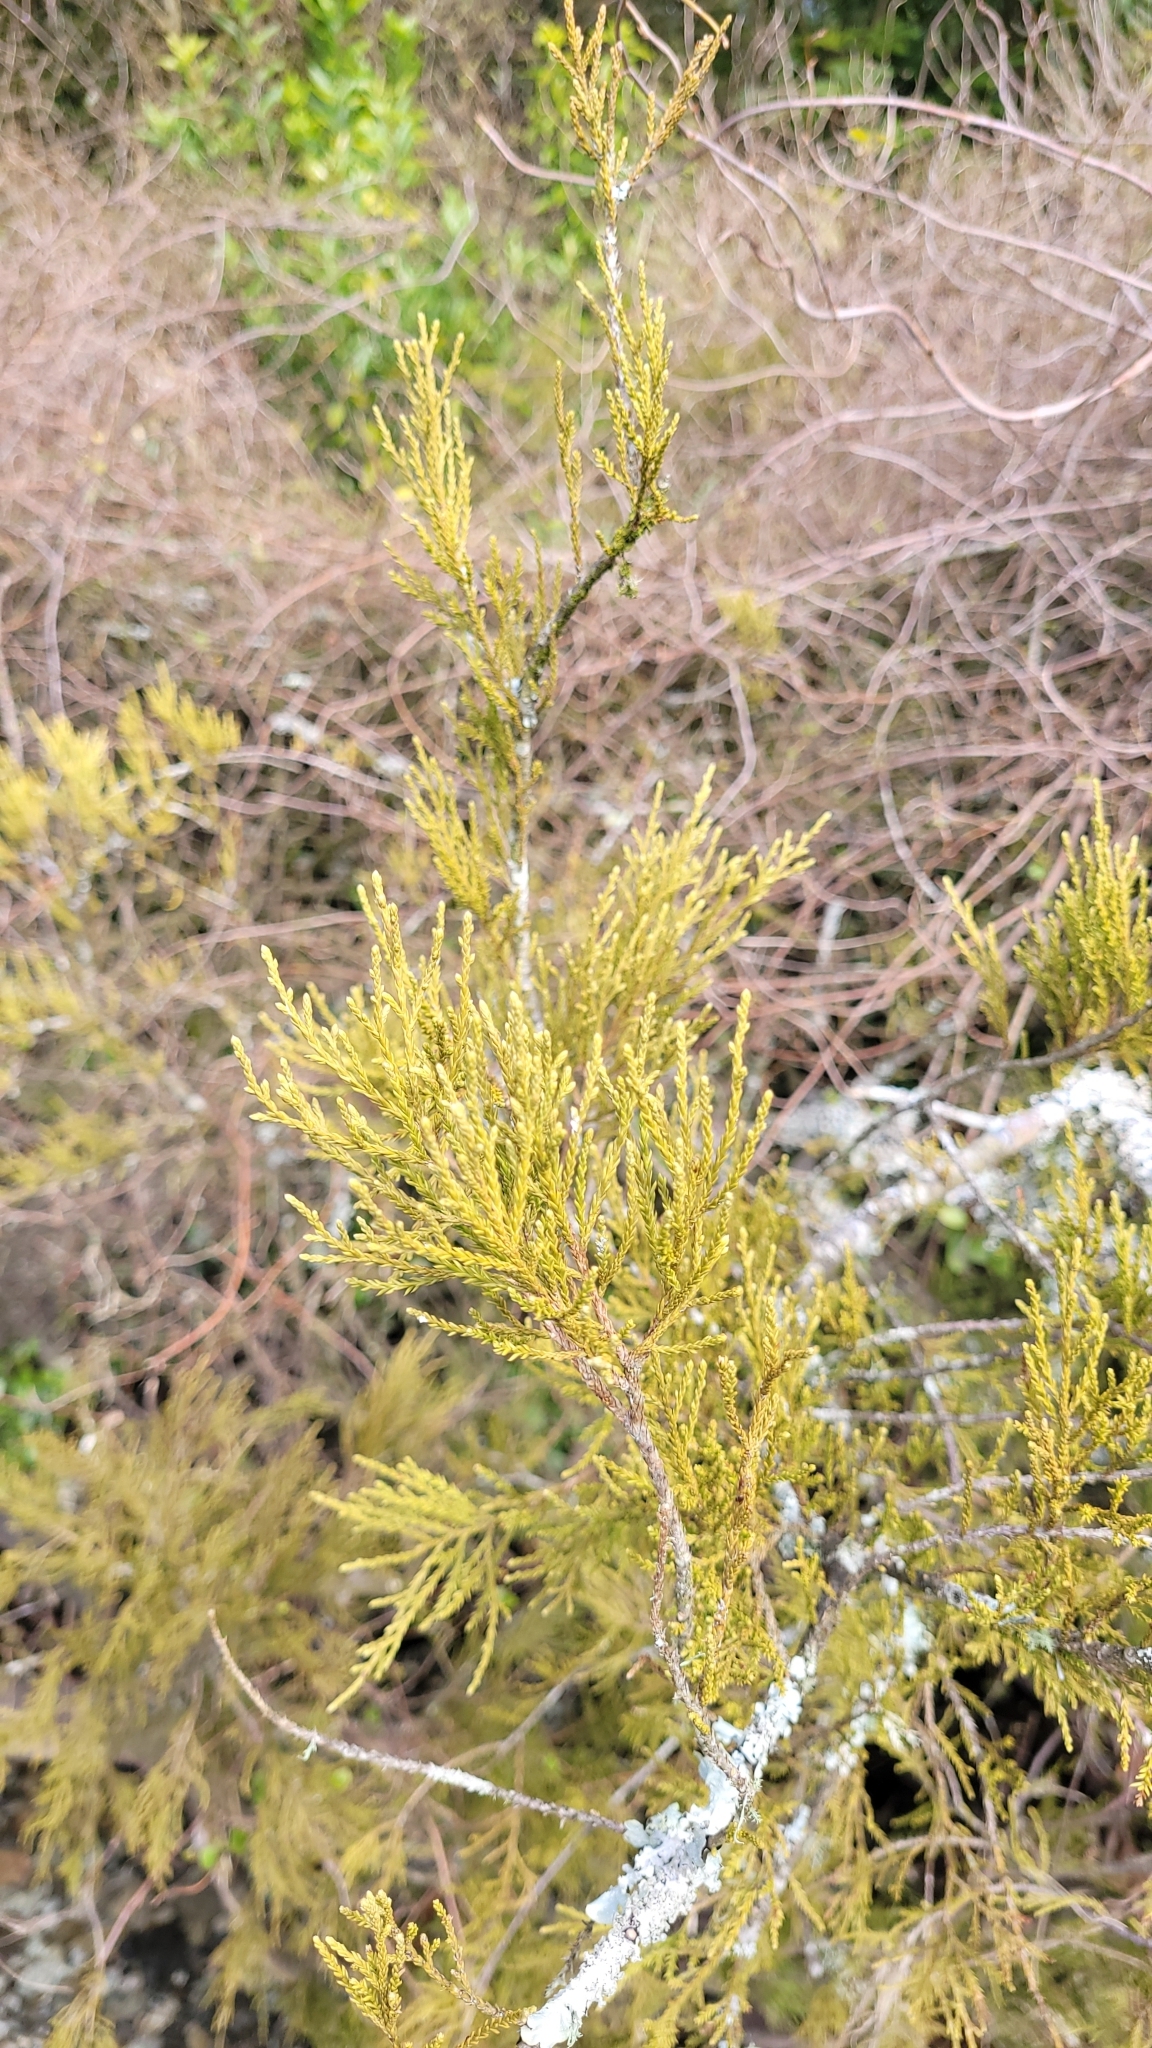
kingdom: Plantae
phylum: Tracheophyta
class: Pinopsida
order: Pinales
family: Podocarpaceae
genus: Lepidothamnus
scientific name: Lepidothamnus intermedius
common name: Yellow silver pine
